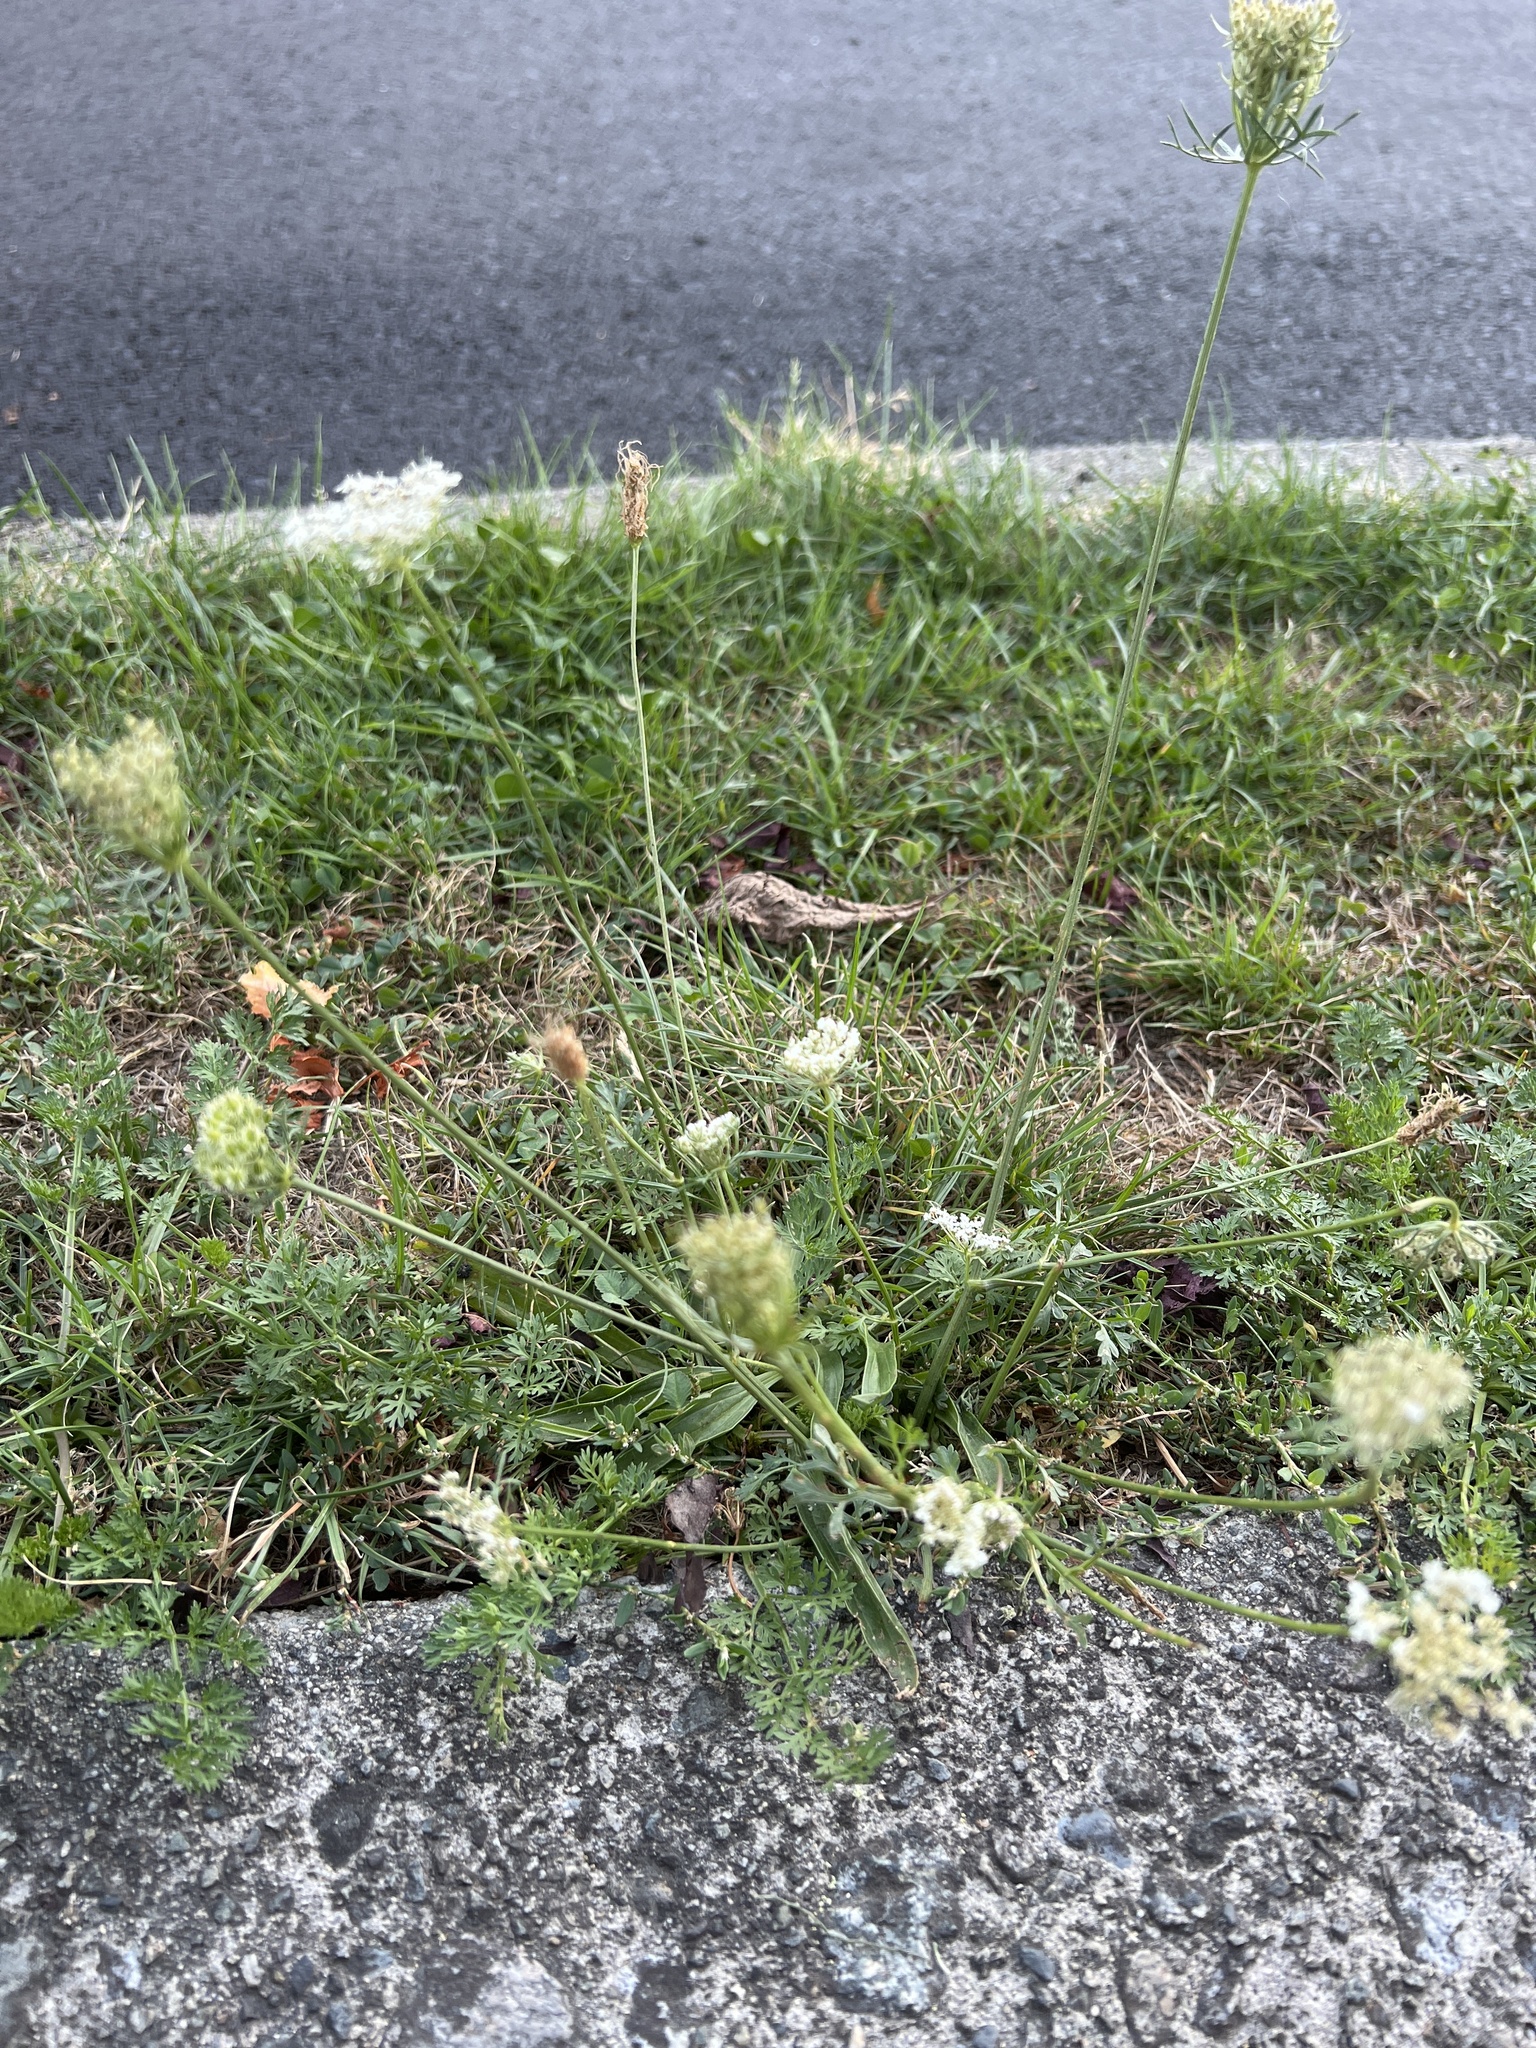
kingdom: Plantae
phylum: Tracheophyta
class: Magnoliopsida
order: Apiales
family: Apiaceae
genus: Daucus
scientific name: Daucus carota
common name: Wild carrot
